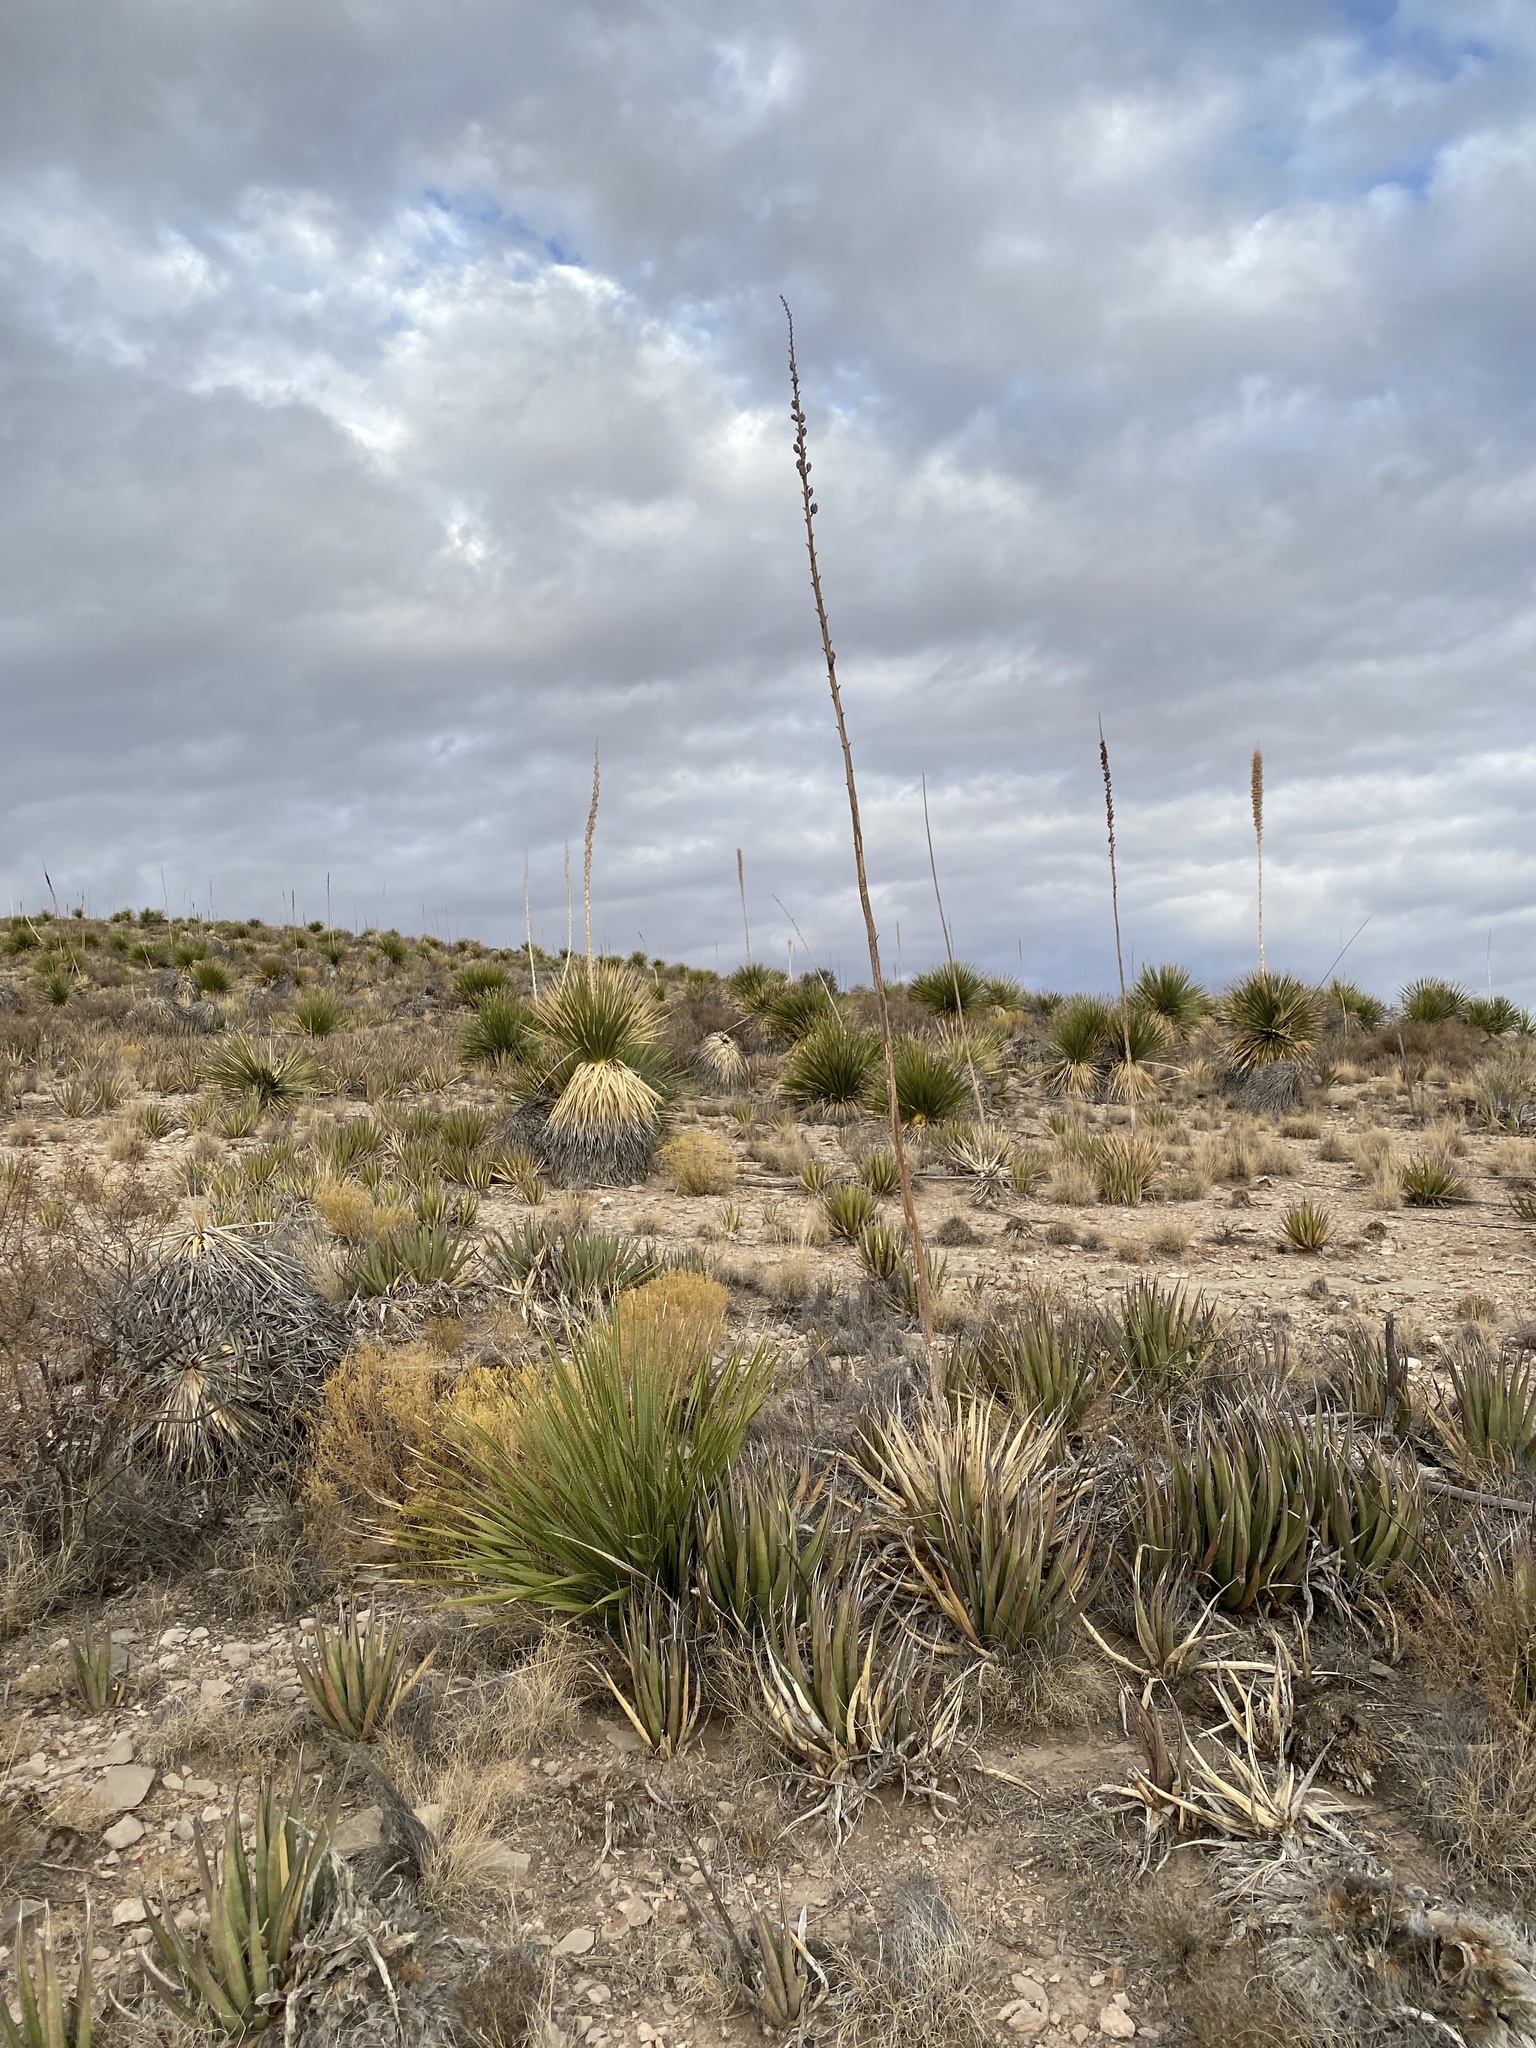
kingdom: Plantae
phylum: Tracheophyta
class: Liliopsida
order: Asparagales
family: Asparagaceae
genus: Agave
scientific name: Agave lechuguilla
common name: Lecheguilla agave
